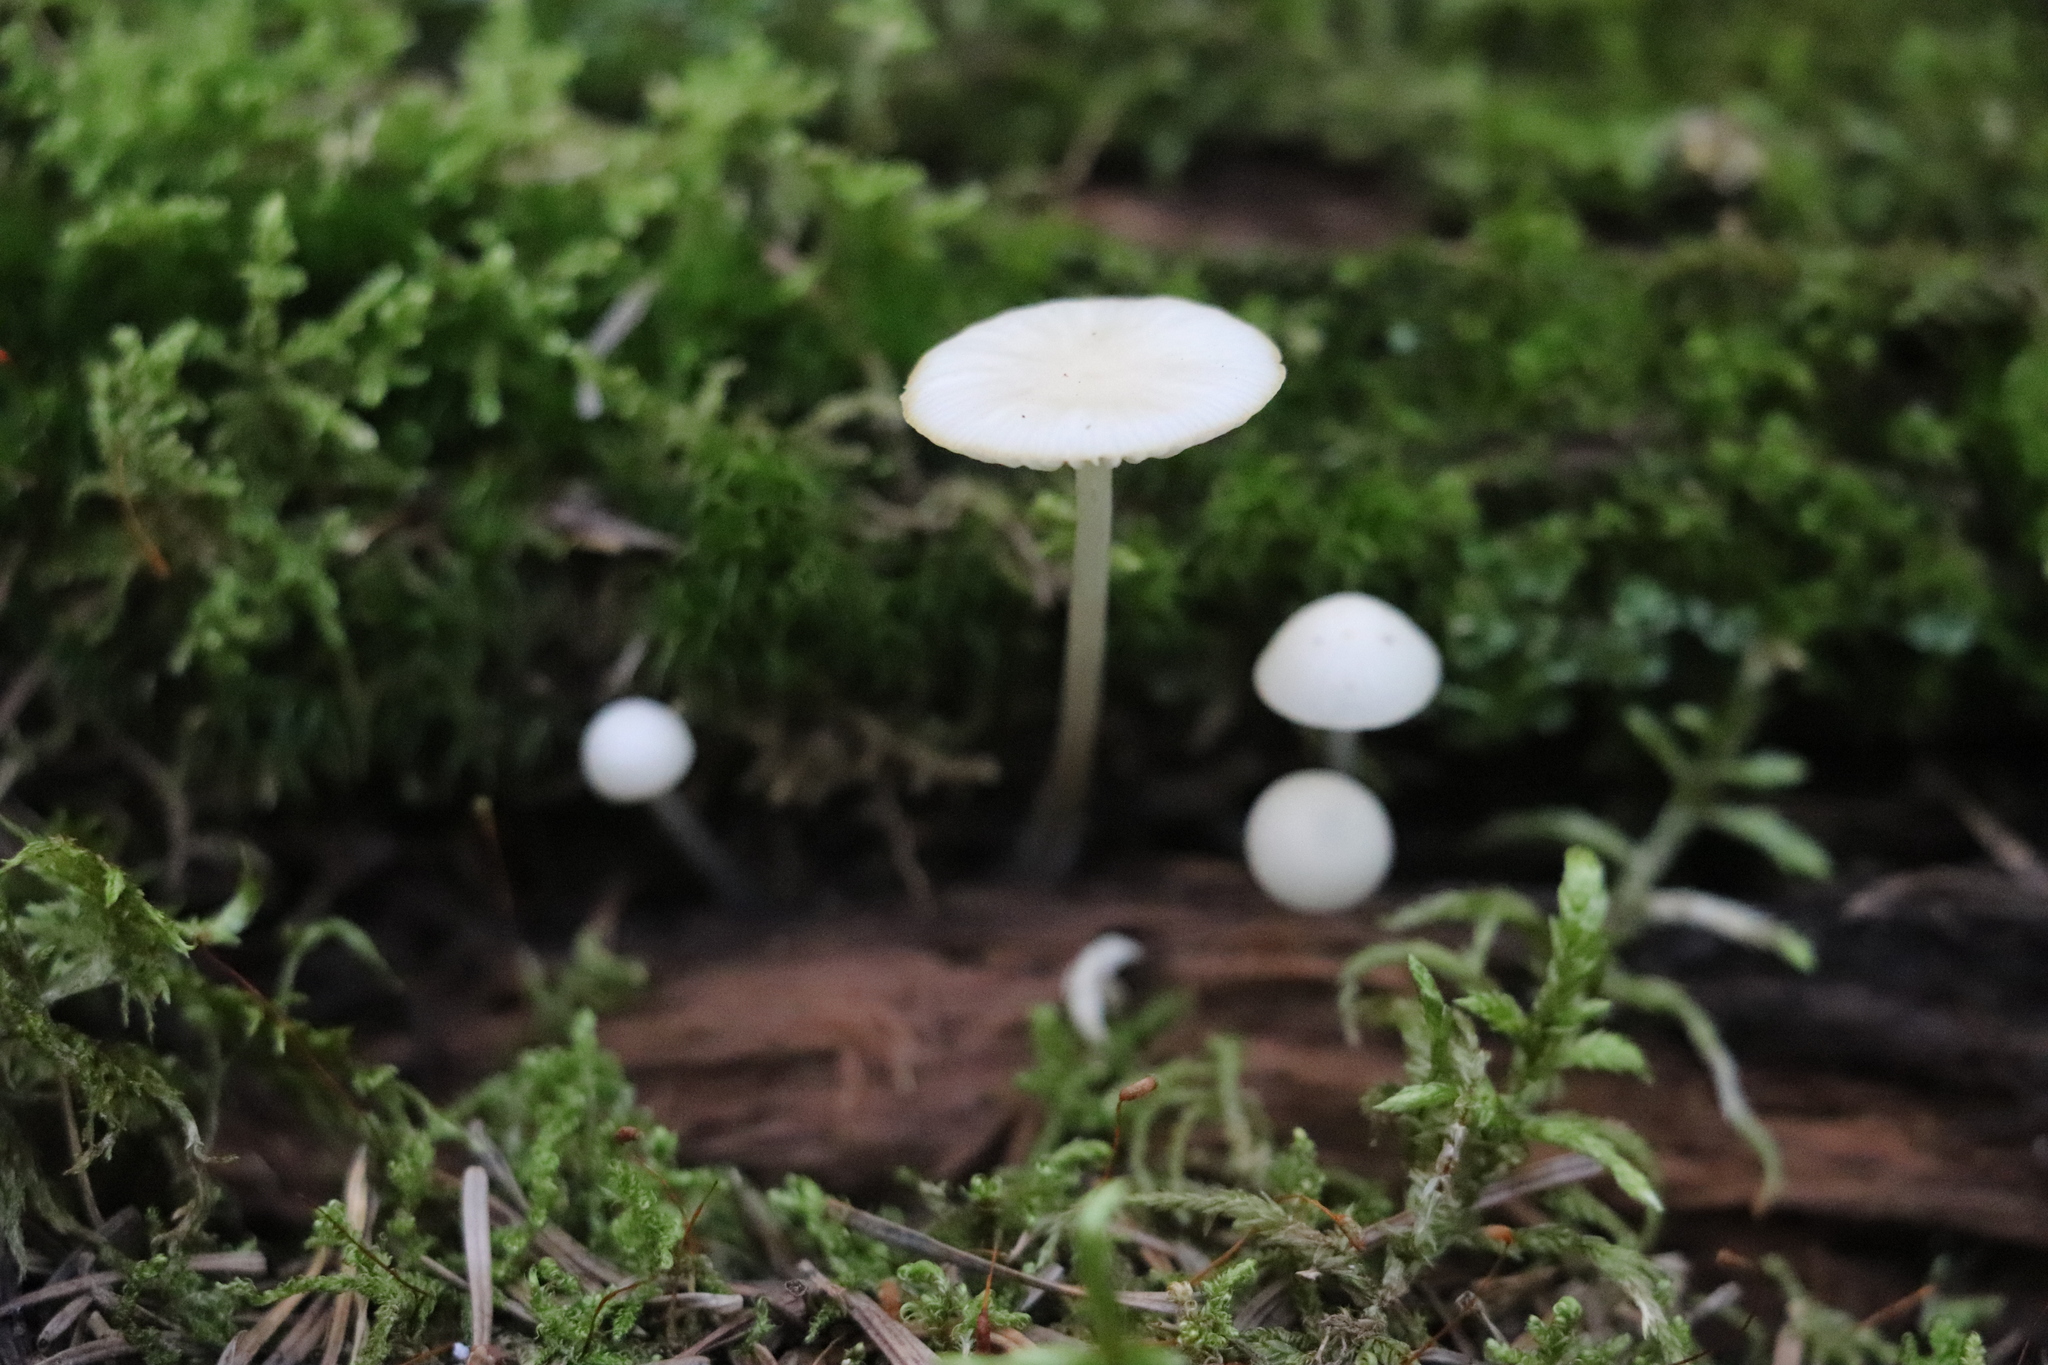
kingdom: Fungi
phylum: Basidiomycota
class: Agaricomycetes
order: Agaricales
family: Marasmiaceae
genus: Marasmius
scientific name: Marasmius wynneae
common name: Pearly parachute
